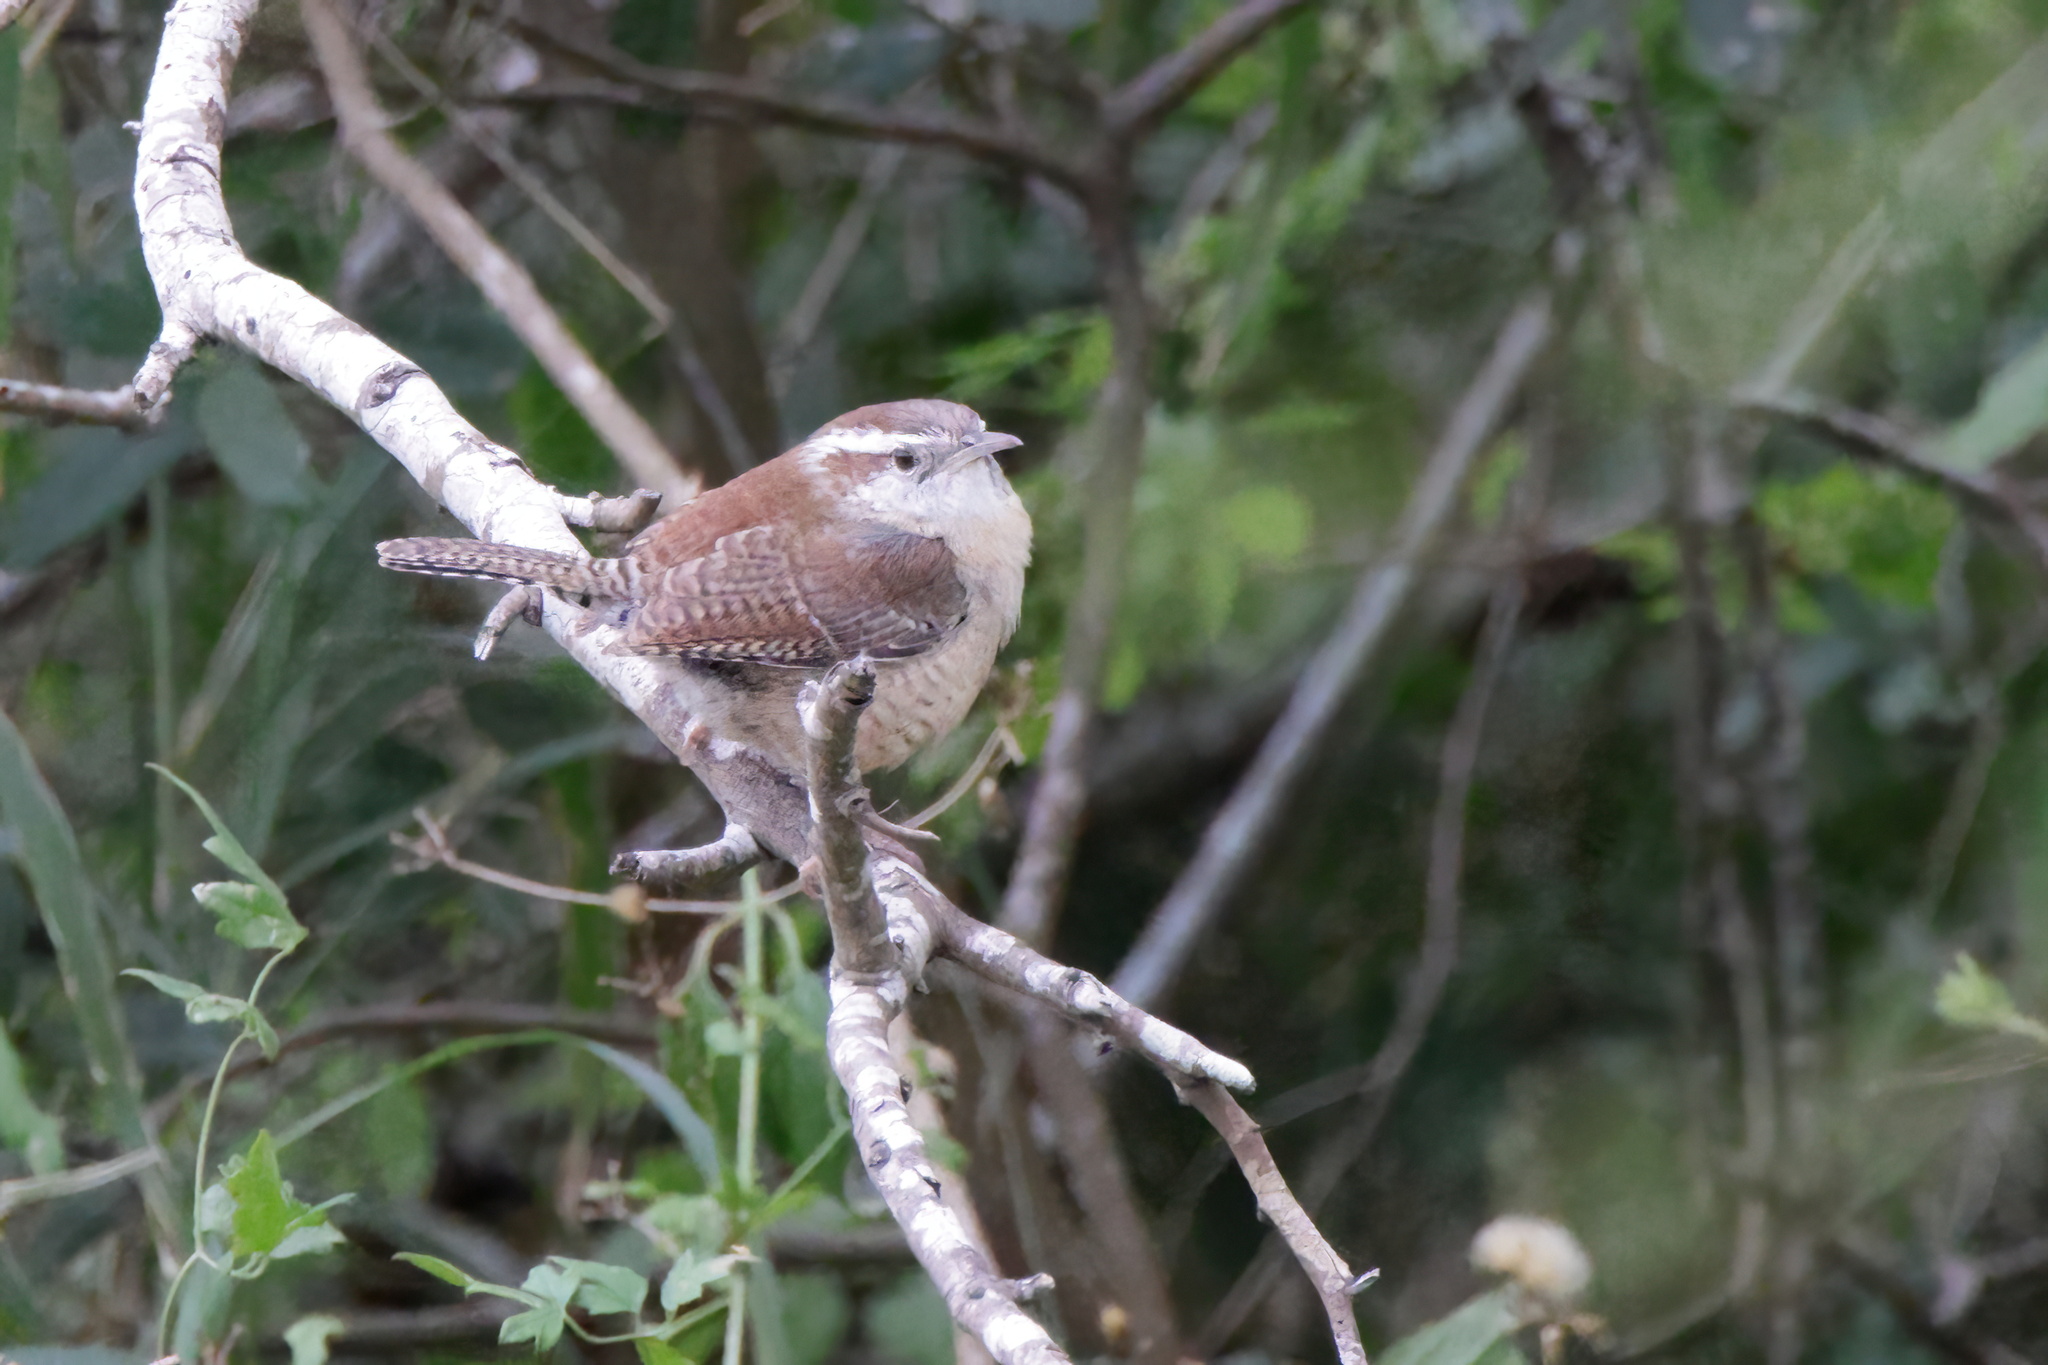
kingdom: Animalia
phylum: Chordata
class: Aves
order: Passeriformes
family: Troglodytidae
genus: Thryothorus
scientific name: Thryothorus ludovicianus
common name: Carolina wren
